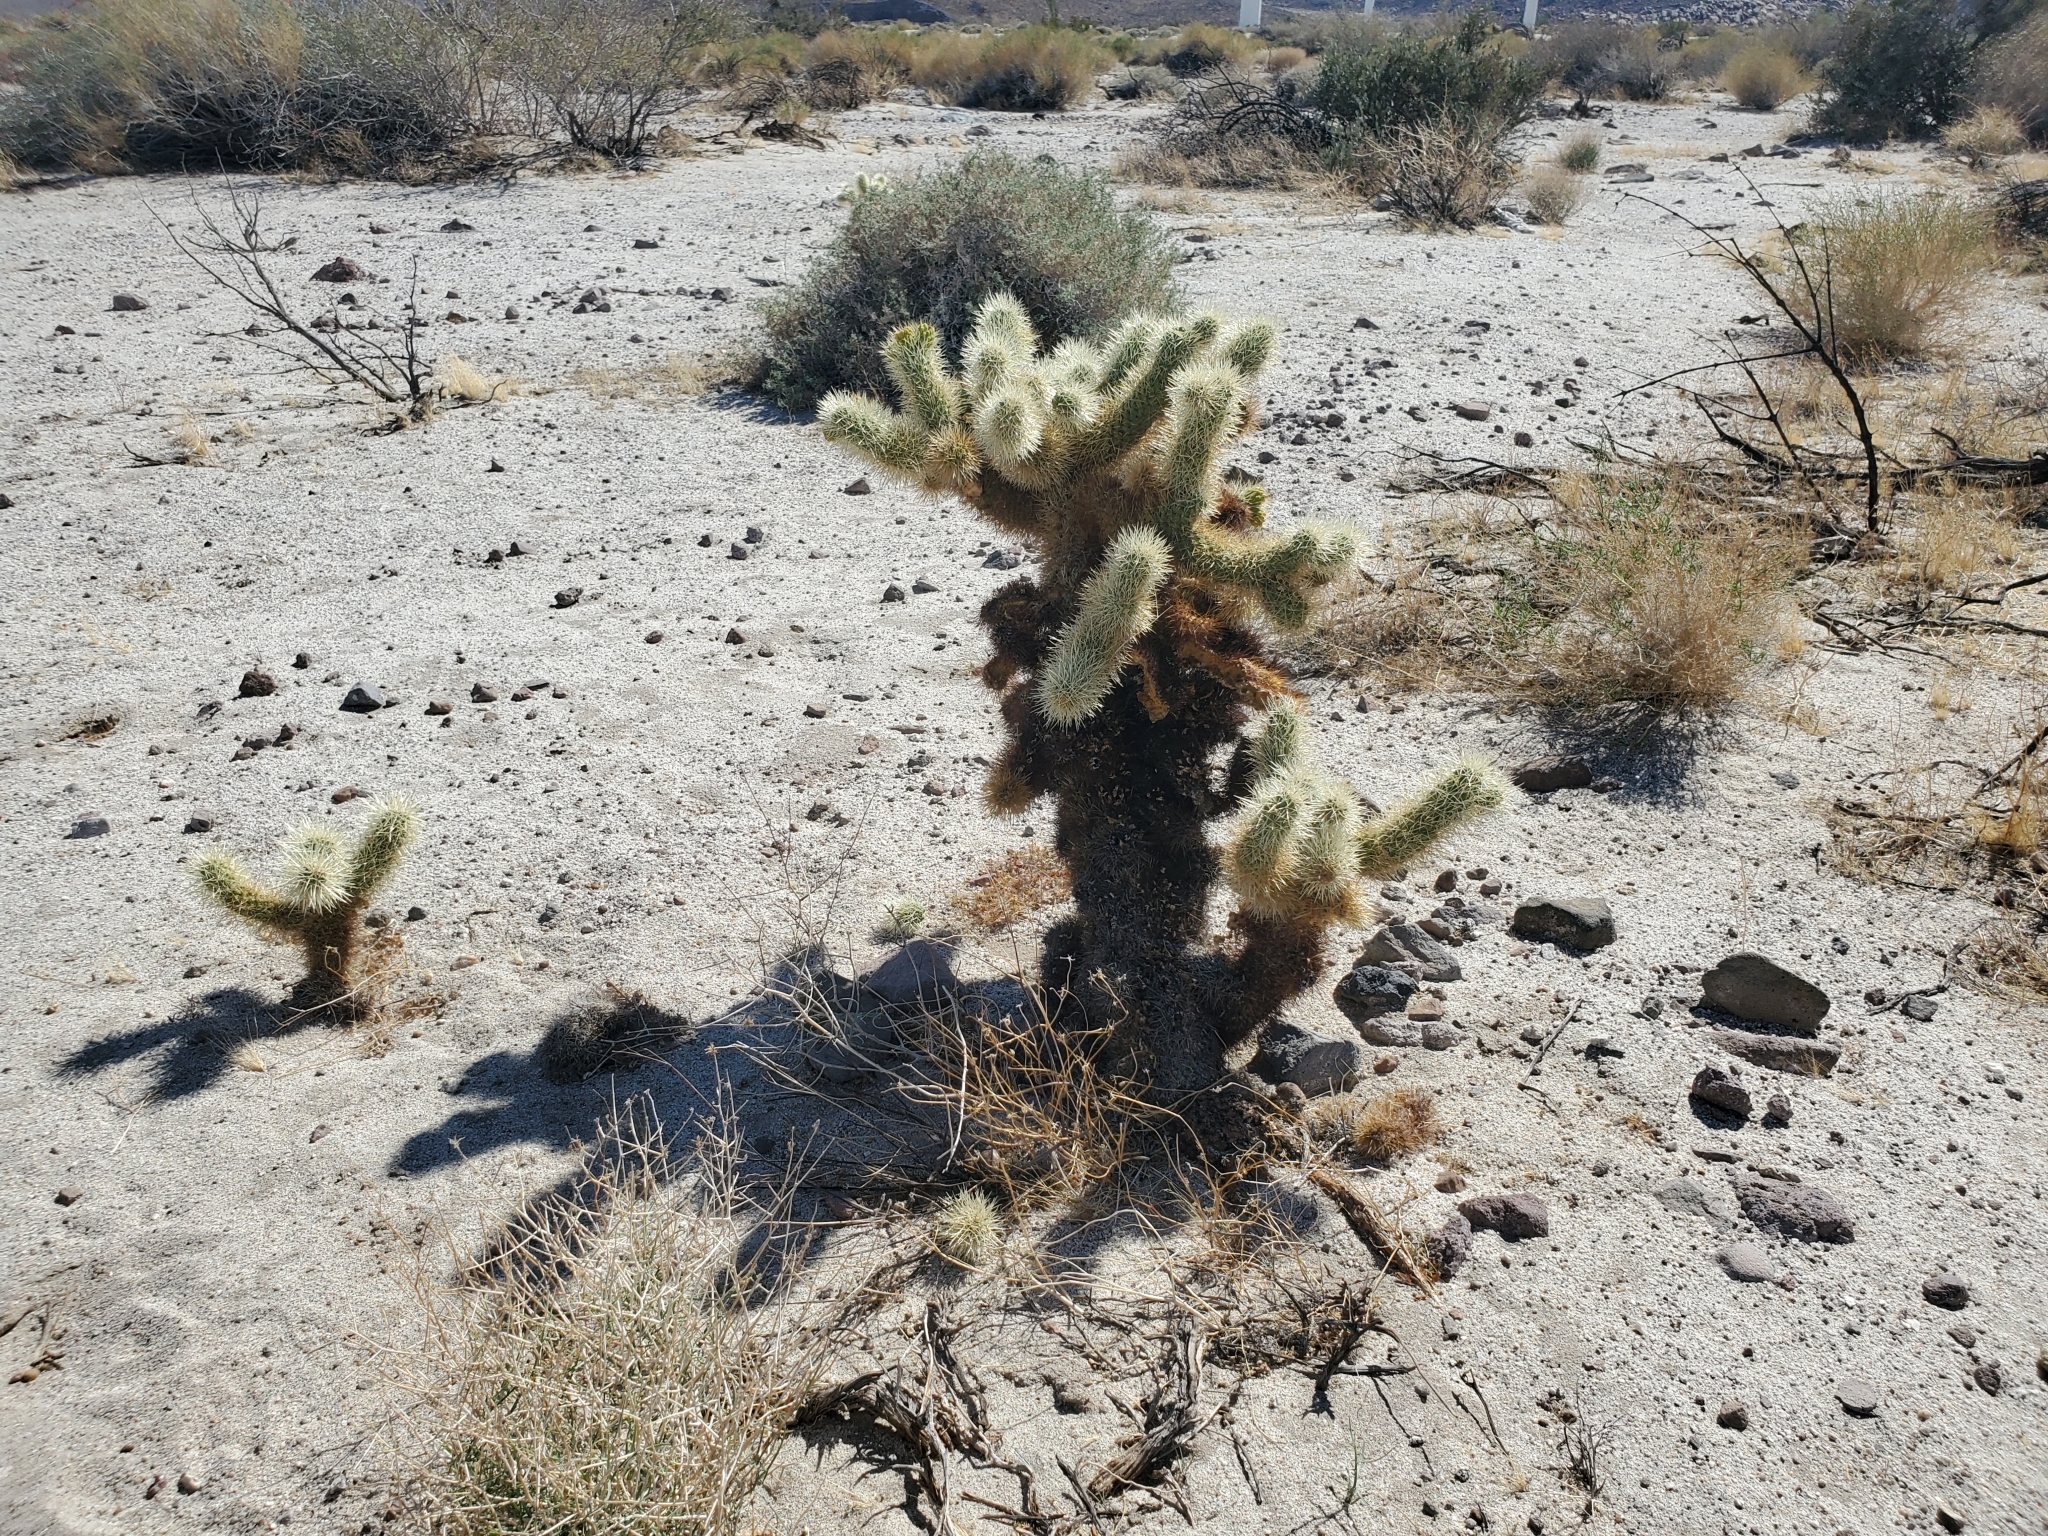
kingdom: Plantae
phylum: Tracheophyta
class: Magnoliopsida
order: Caryophyllales
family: Cactaceae
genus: Cylindropuntia
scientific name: Cylindropuntia fosbergii
